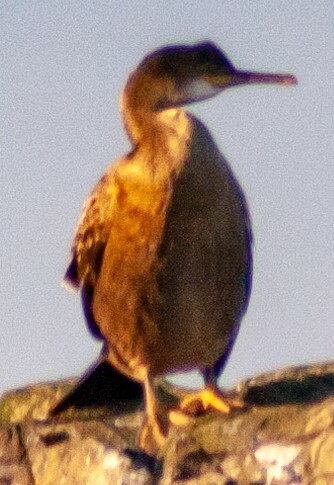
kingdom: Animalia
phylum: Chordata
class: Aves
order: Suliformes
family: Phalacrocoracidae
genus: Phalacrocorax
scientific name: Phalacrocorax aristotelis
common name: European shag
